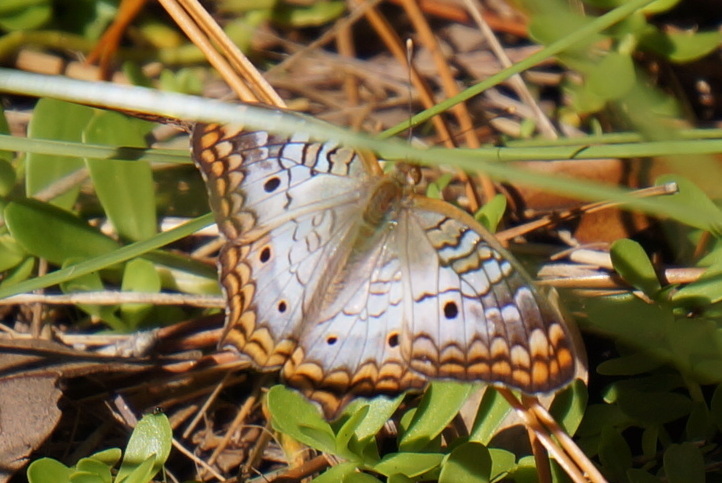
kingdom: Animalia
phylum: Arthropoda
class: Insecta
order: Lepidoptera
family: Nymphalidae
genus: Anartia
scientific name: Anartia jatrophae
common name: White peacock
